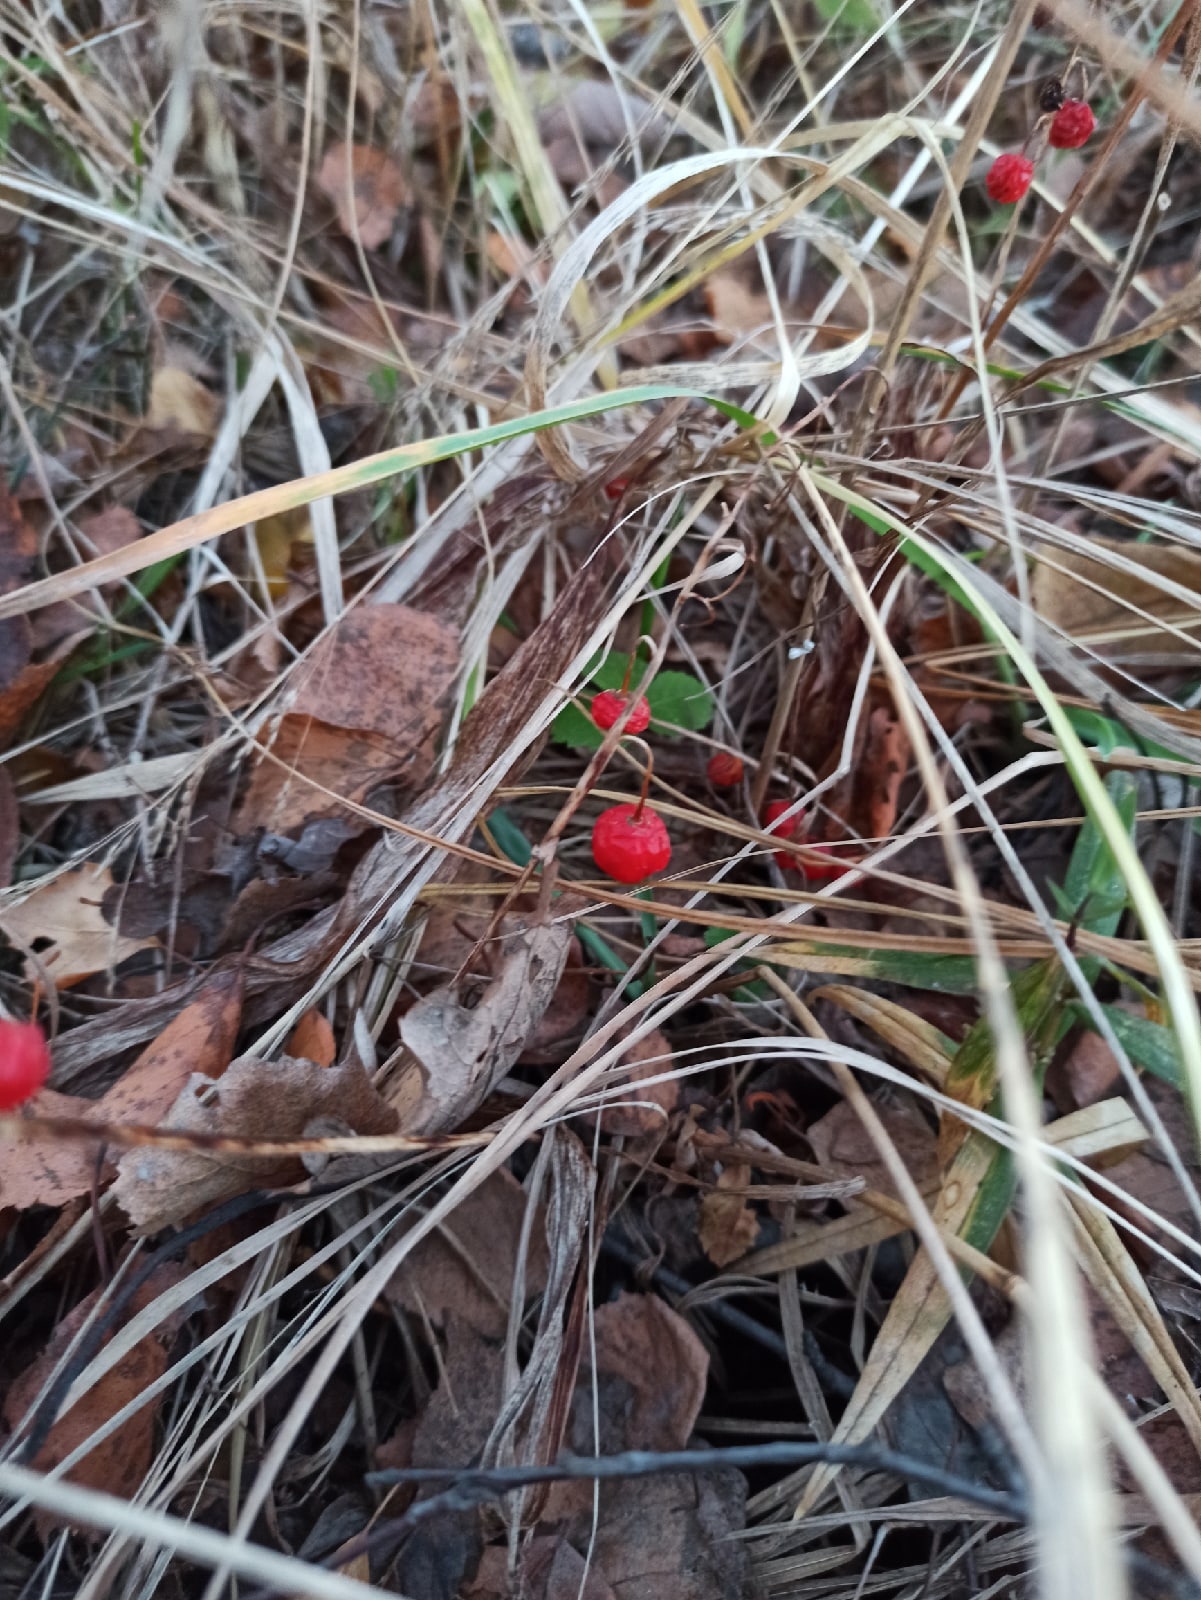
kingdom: Plantae
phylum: Tracheophyta
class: Liliopsida
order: Asparagales
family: Asparagaceae
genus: Convallaria
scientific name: Convallaria majalis
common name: Lily-of-the-valley
